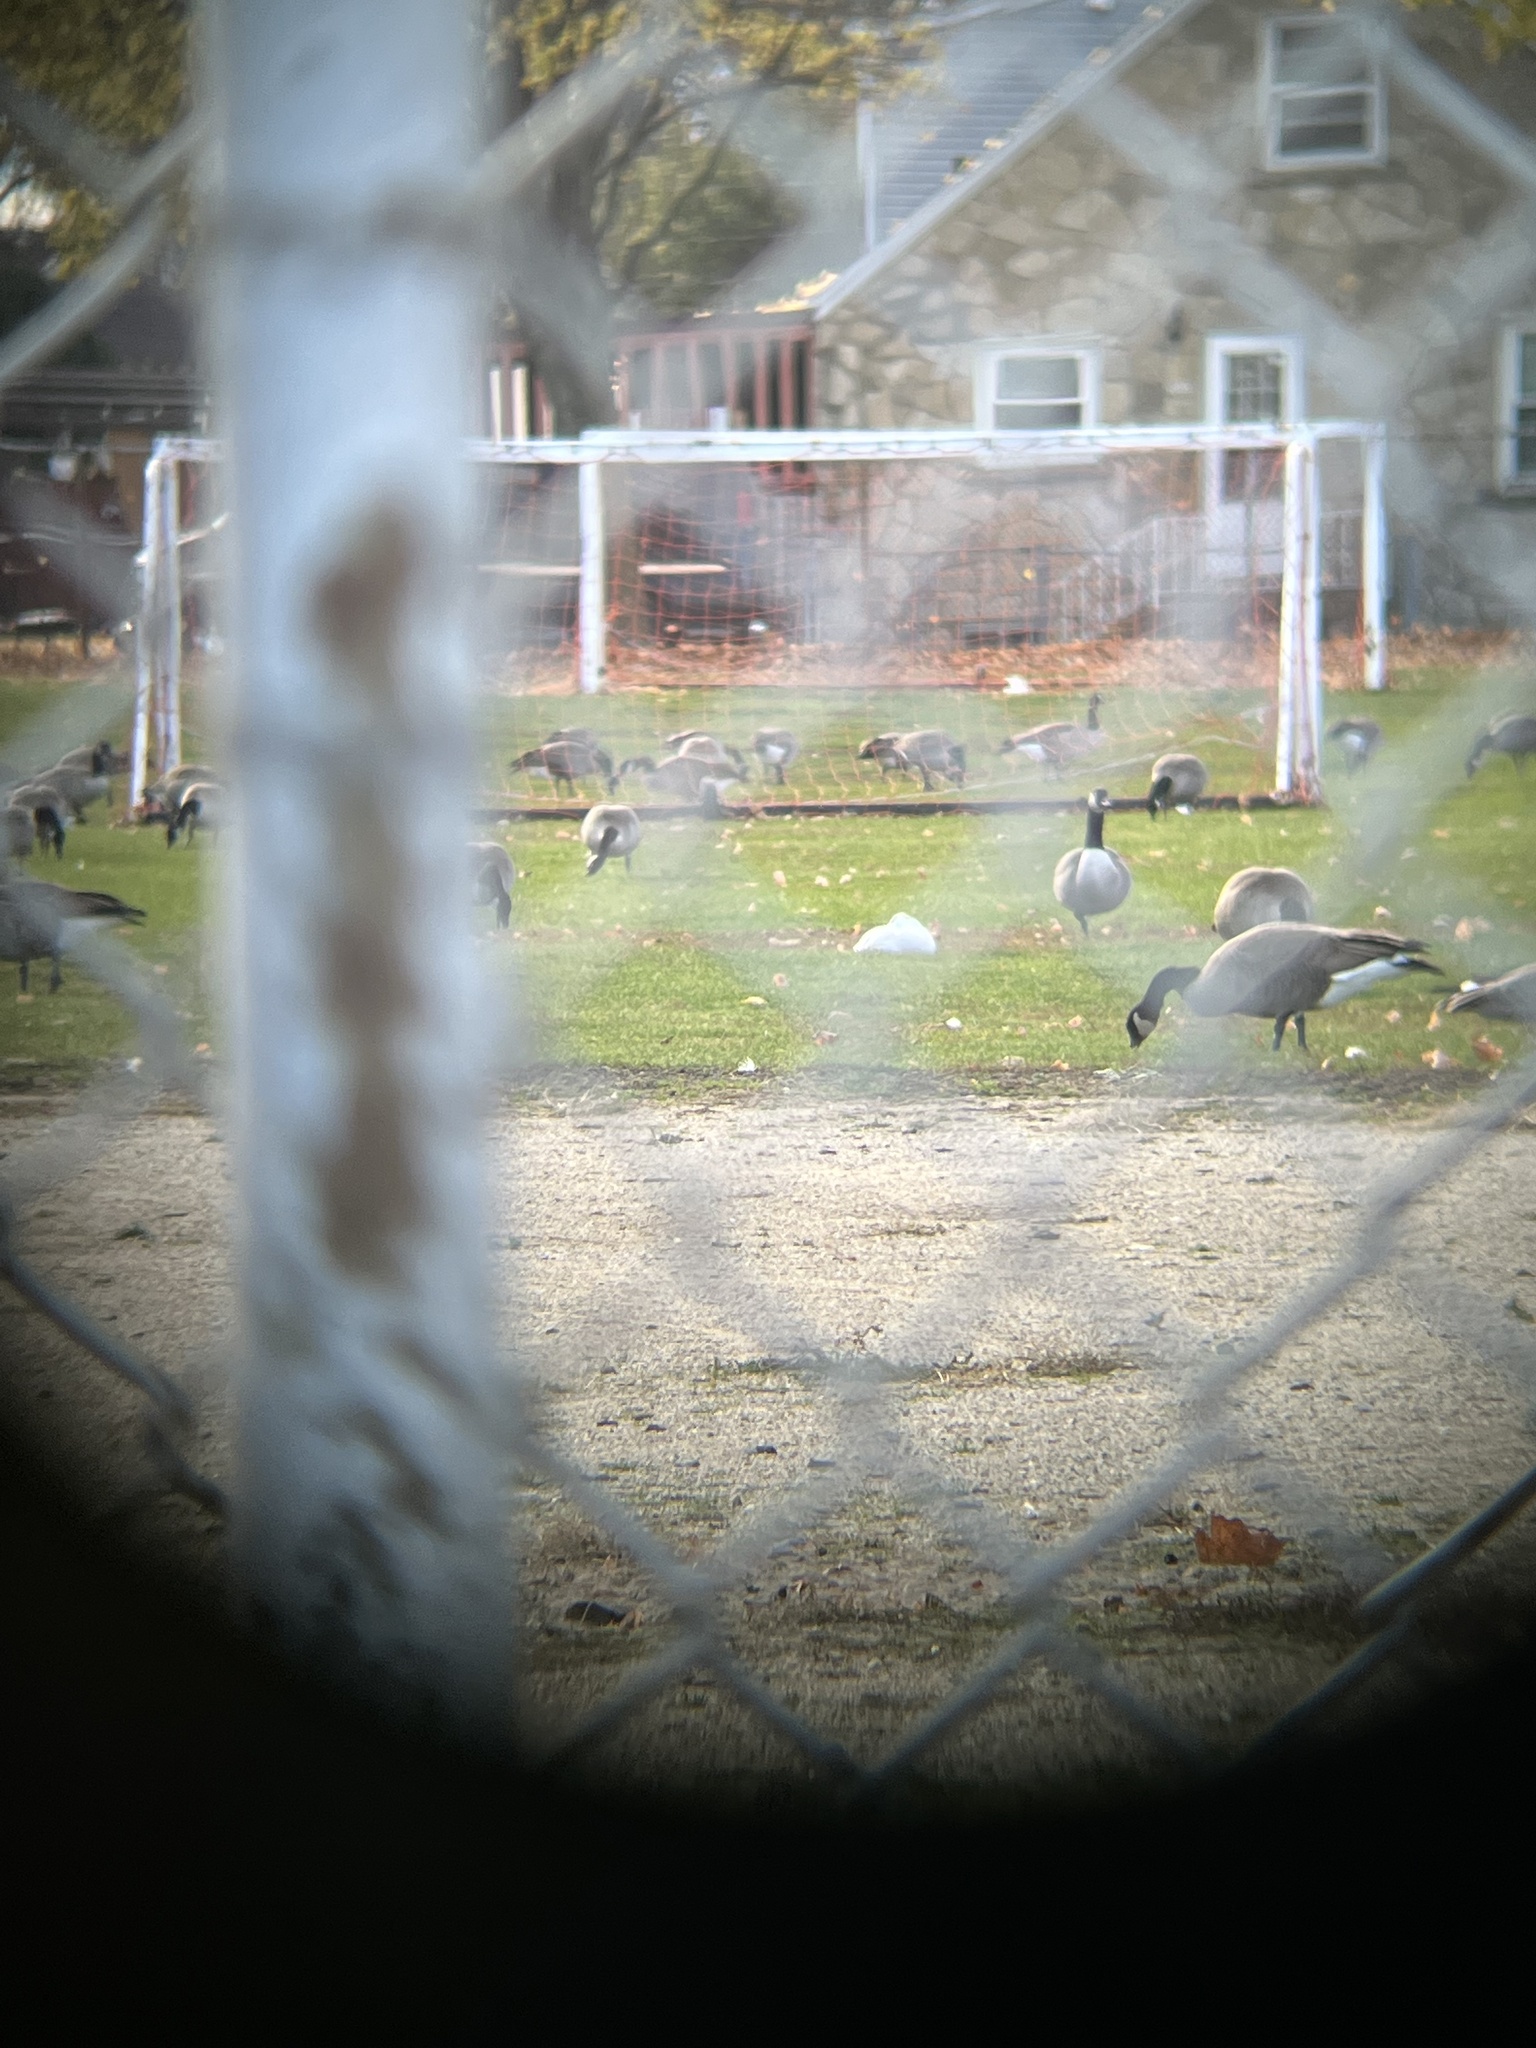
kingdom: Animalia
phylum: Chordata
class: Aves
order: Anseriformes
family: Anatidae
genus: Anser
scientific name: Anser rossii
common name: Ross's goose
